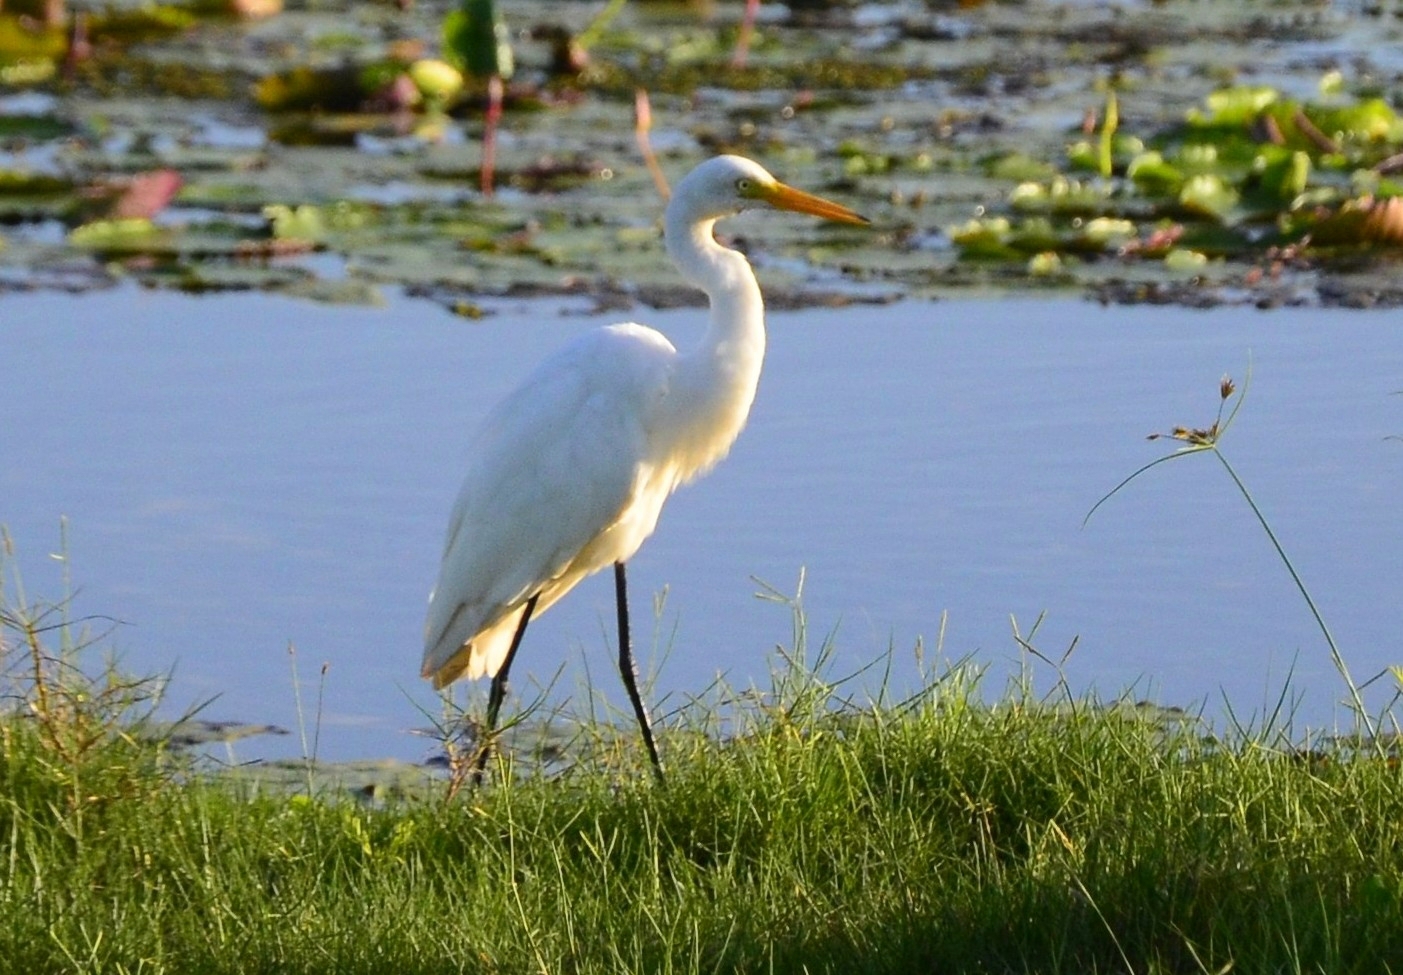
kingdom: Animalia
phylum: Chordata
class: Aves
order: Pelecaniformes
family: Ardeidae
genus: Egretta
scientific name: Egretta intermedia
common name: Intermediate egret
